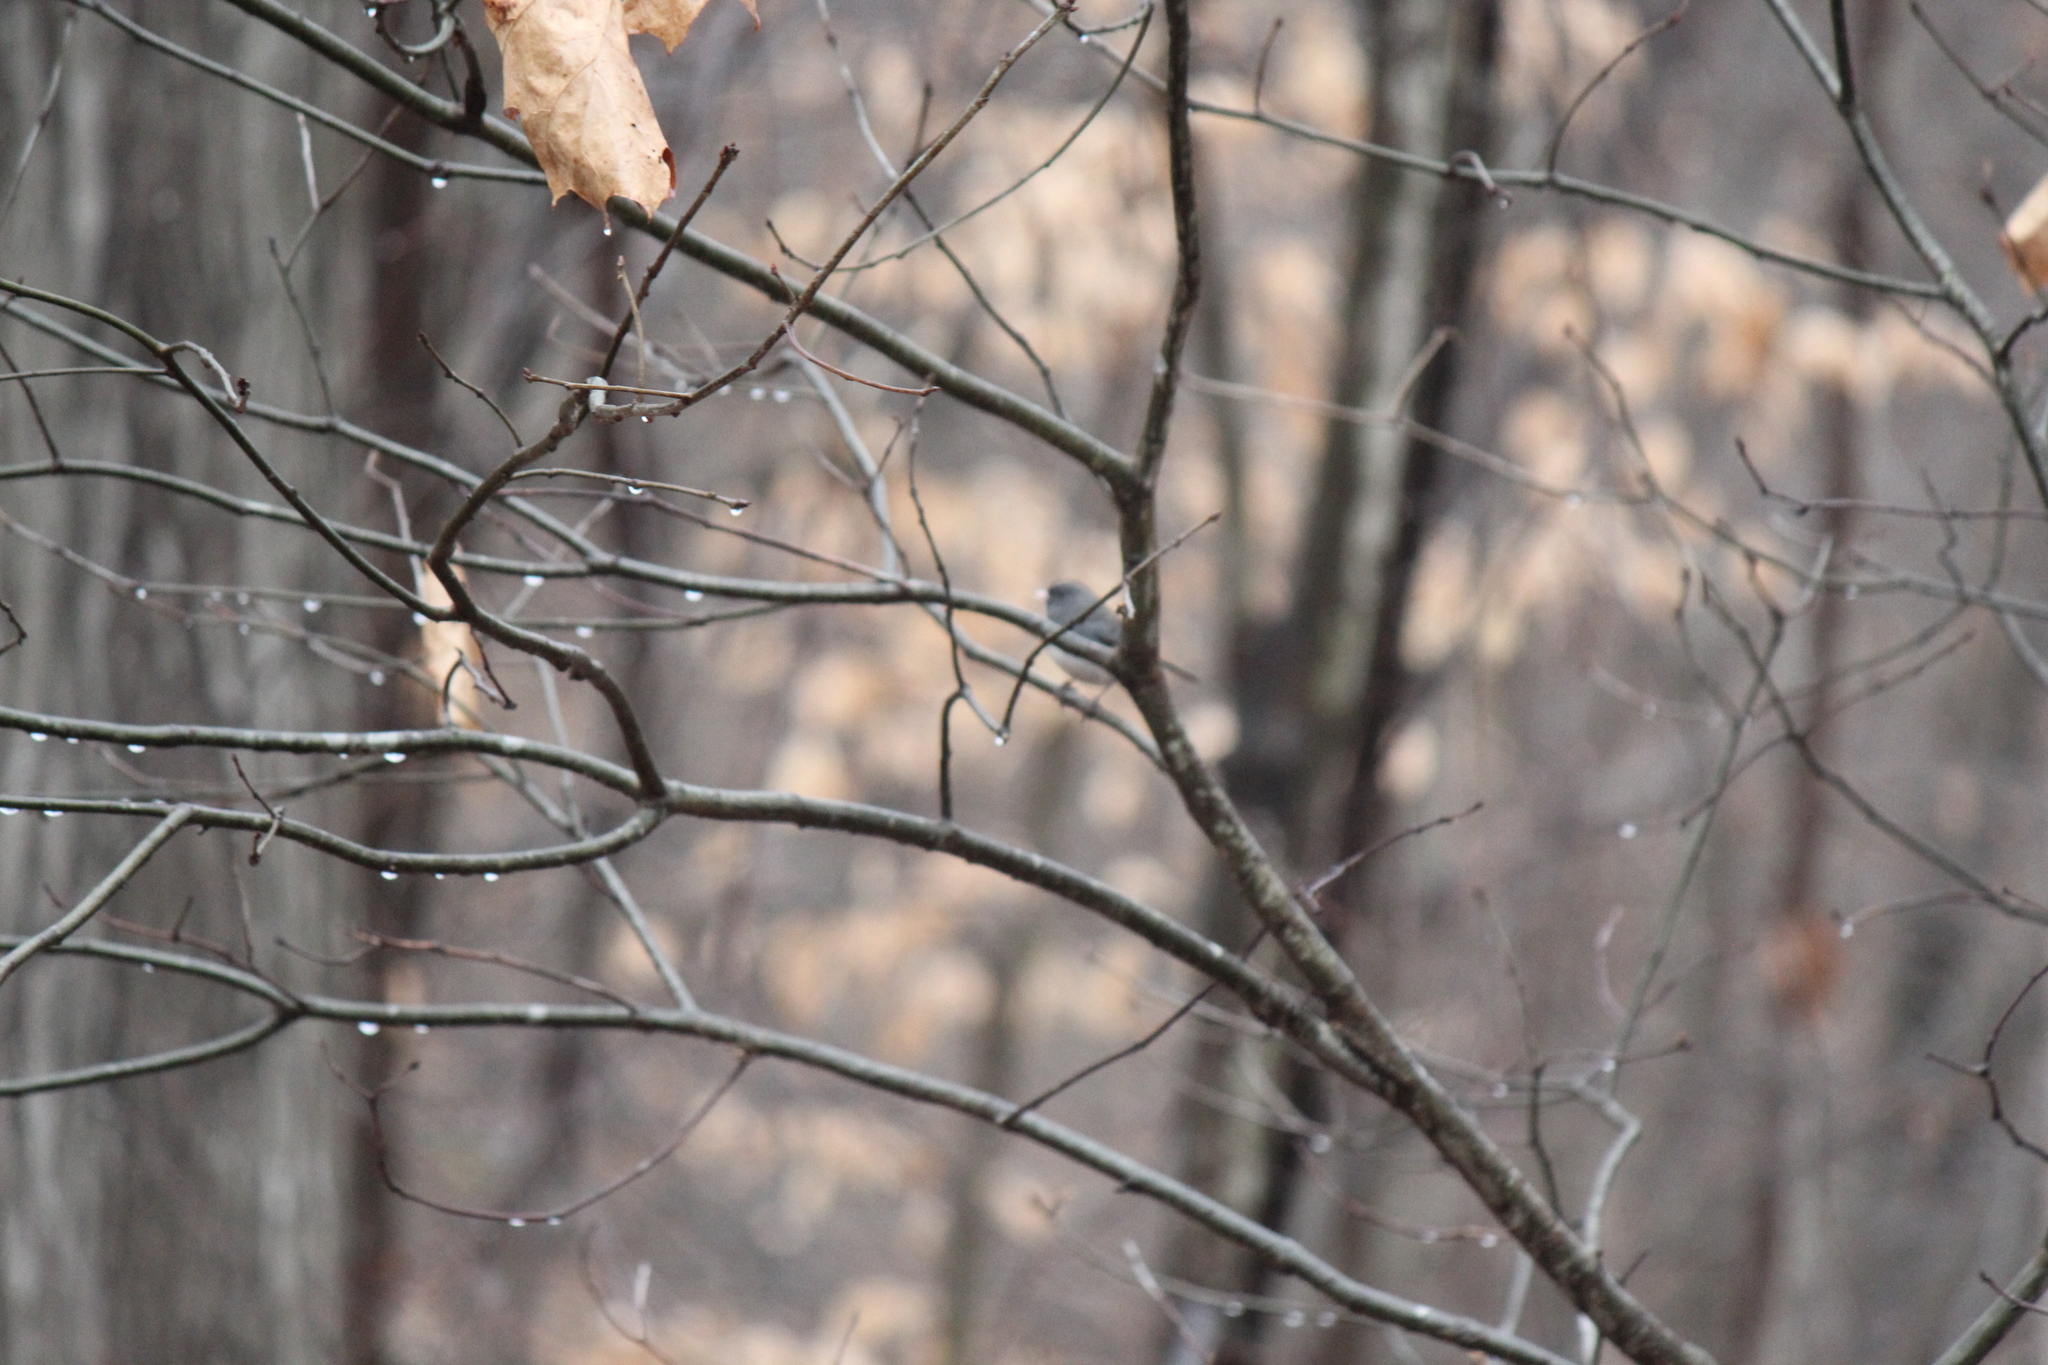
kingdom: Animalia
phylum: Chordata
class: Aves
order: Passeriformes
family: Passerellidae
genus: Junco
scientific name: Junco hyemalis
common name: Dark-eyed junco
